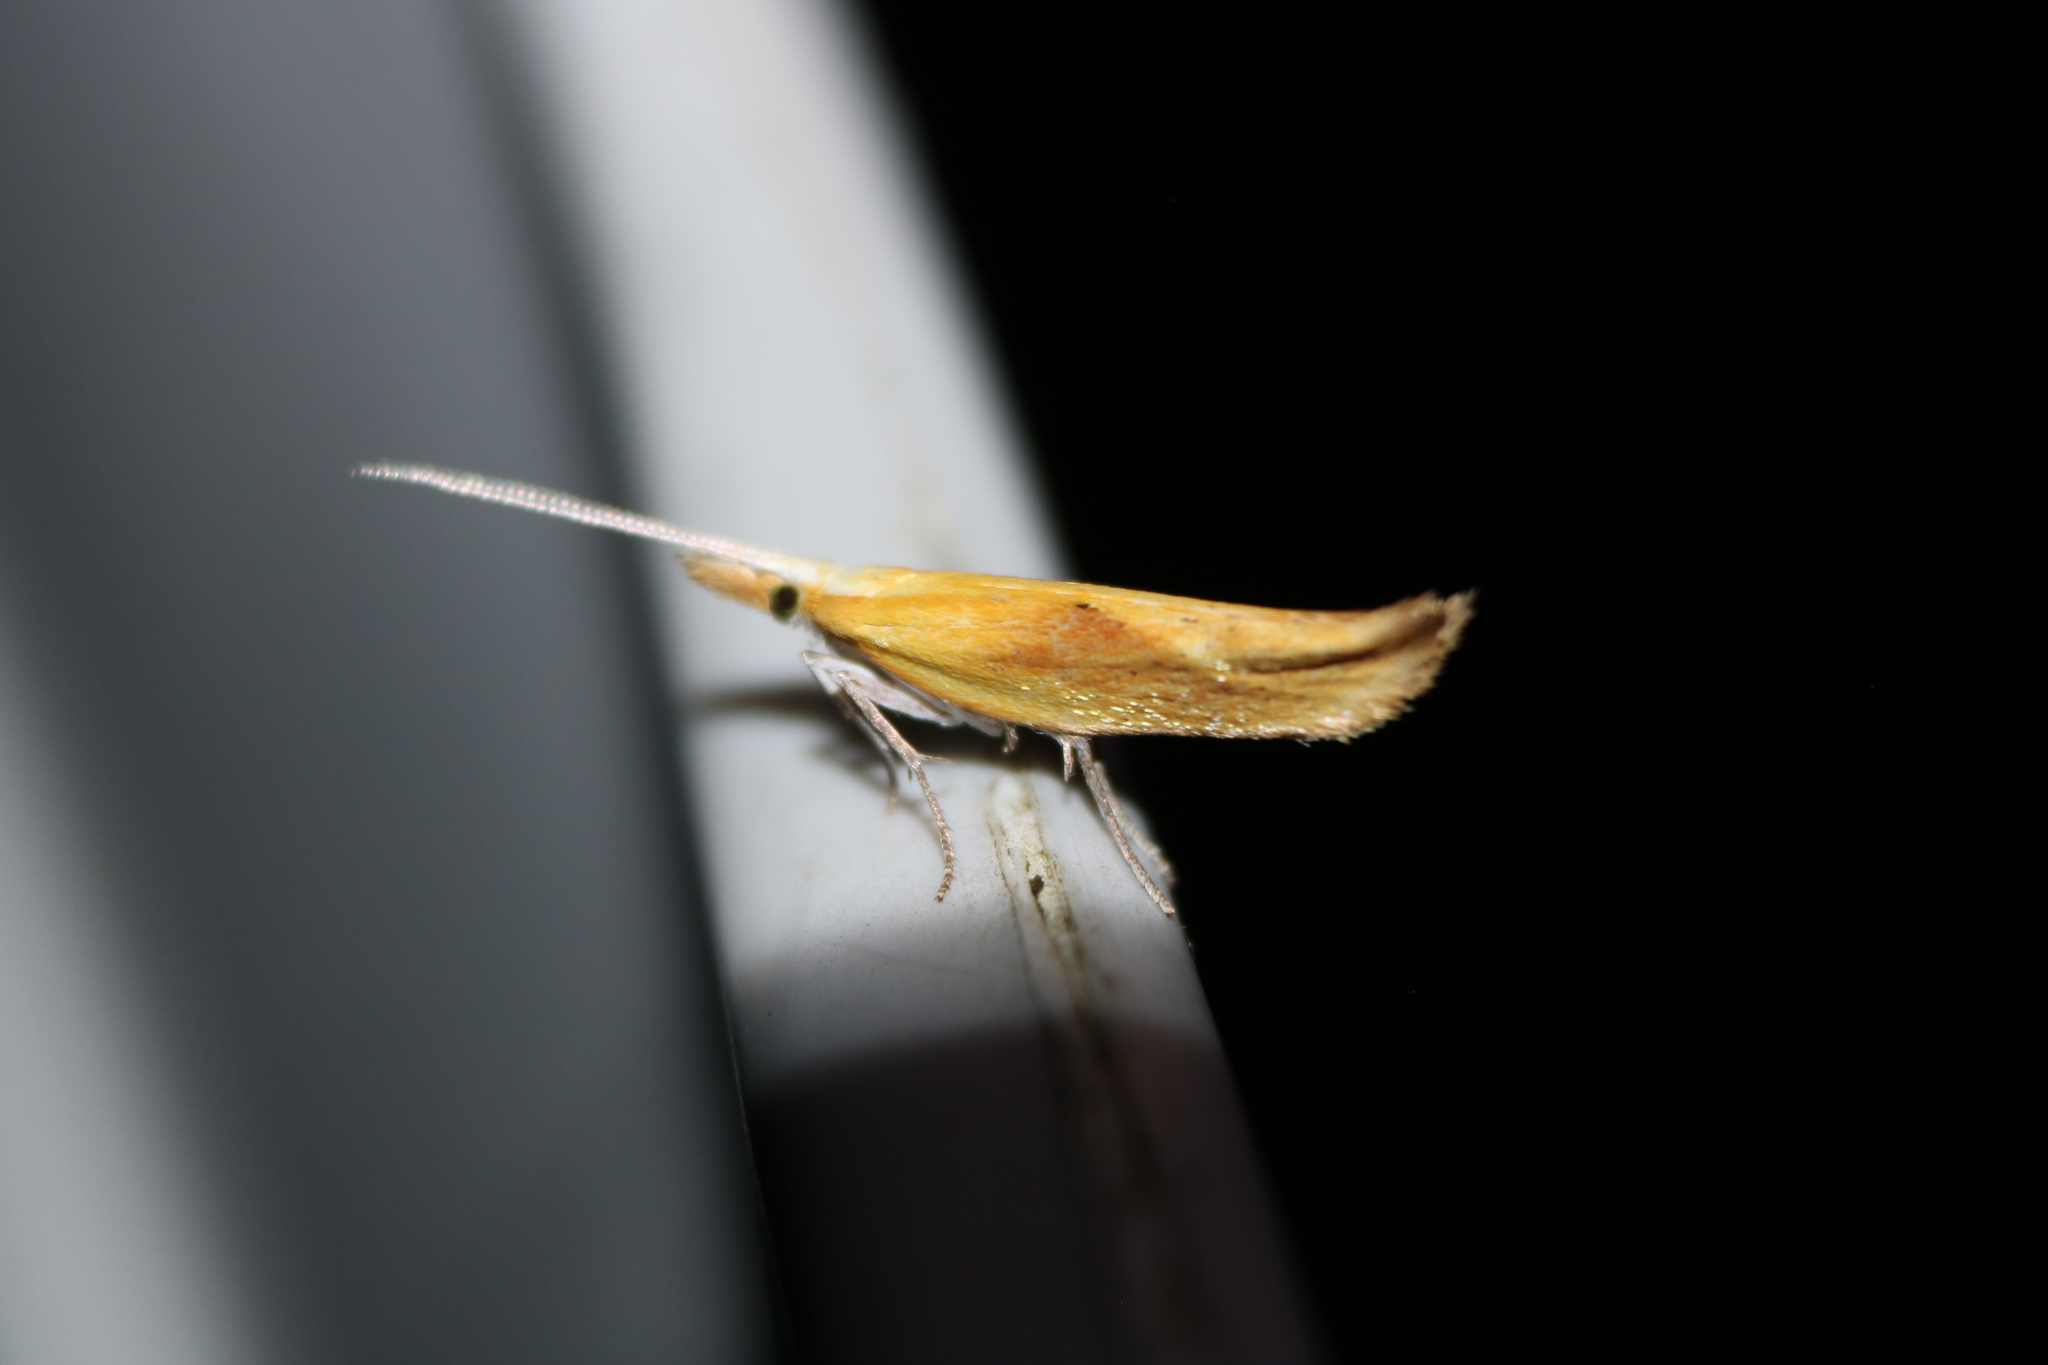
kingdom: Animalia
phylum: Arthropoda
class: Insecta
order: Lepidoptera
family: Ypsolophidae
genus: Ypsolopha
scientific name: Ypsolopha canariella
